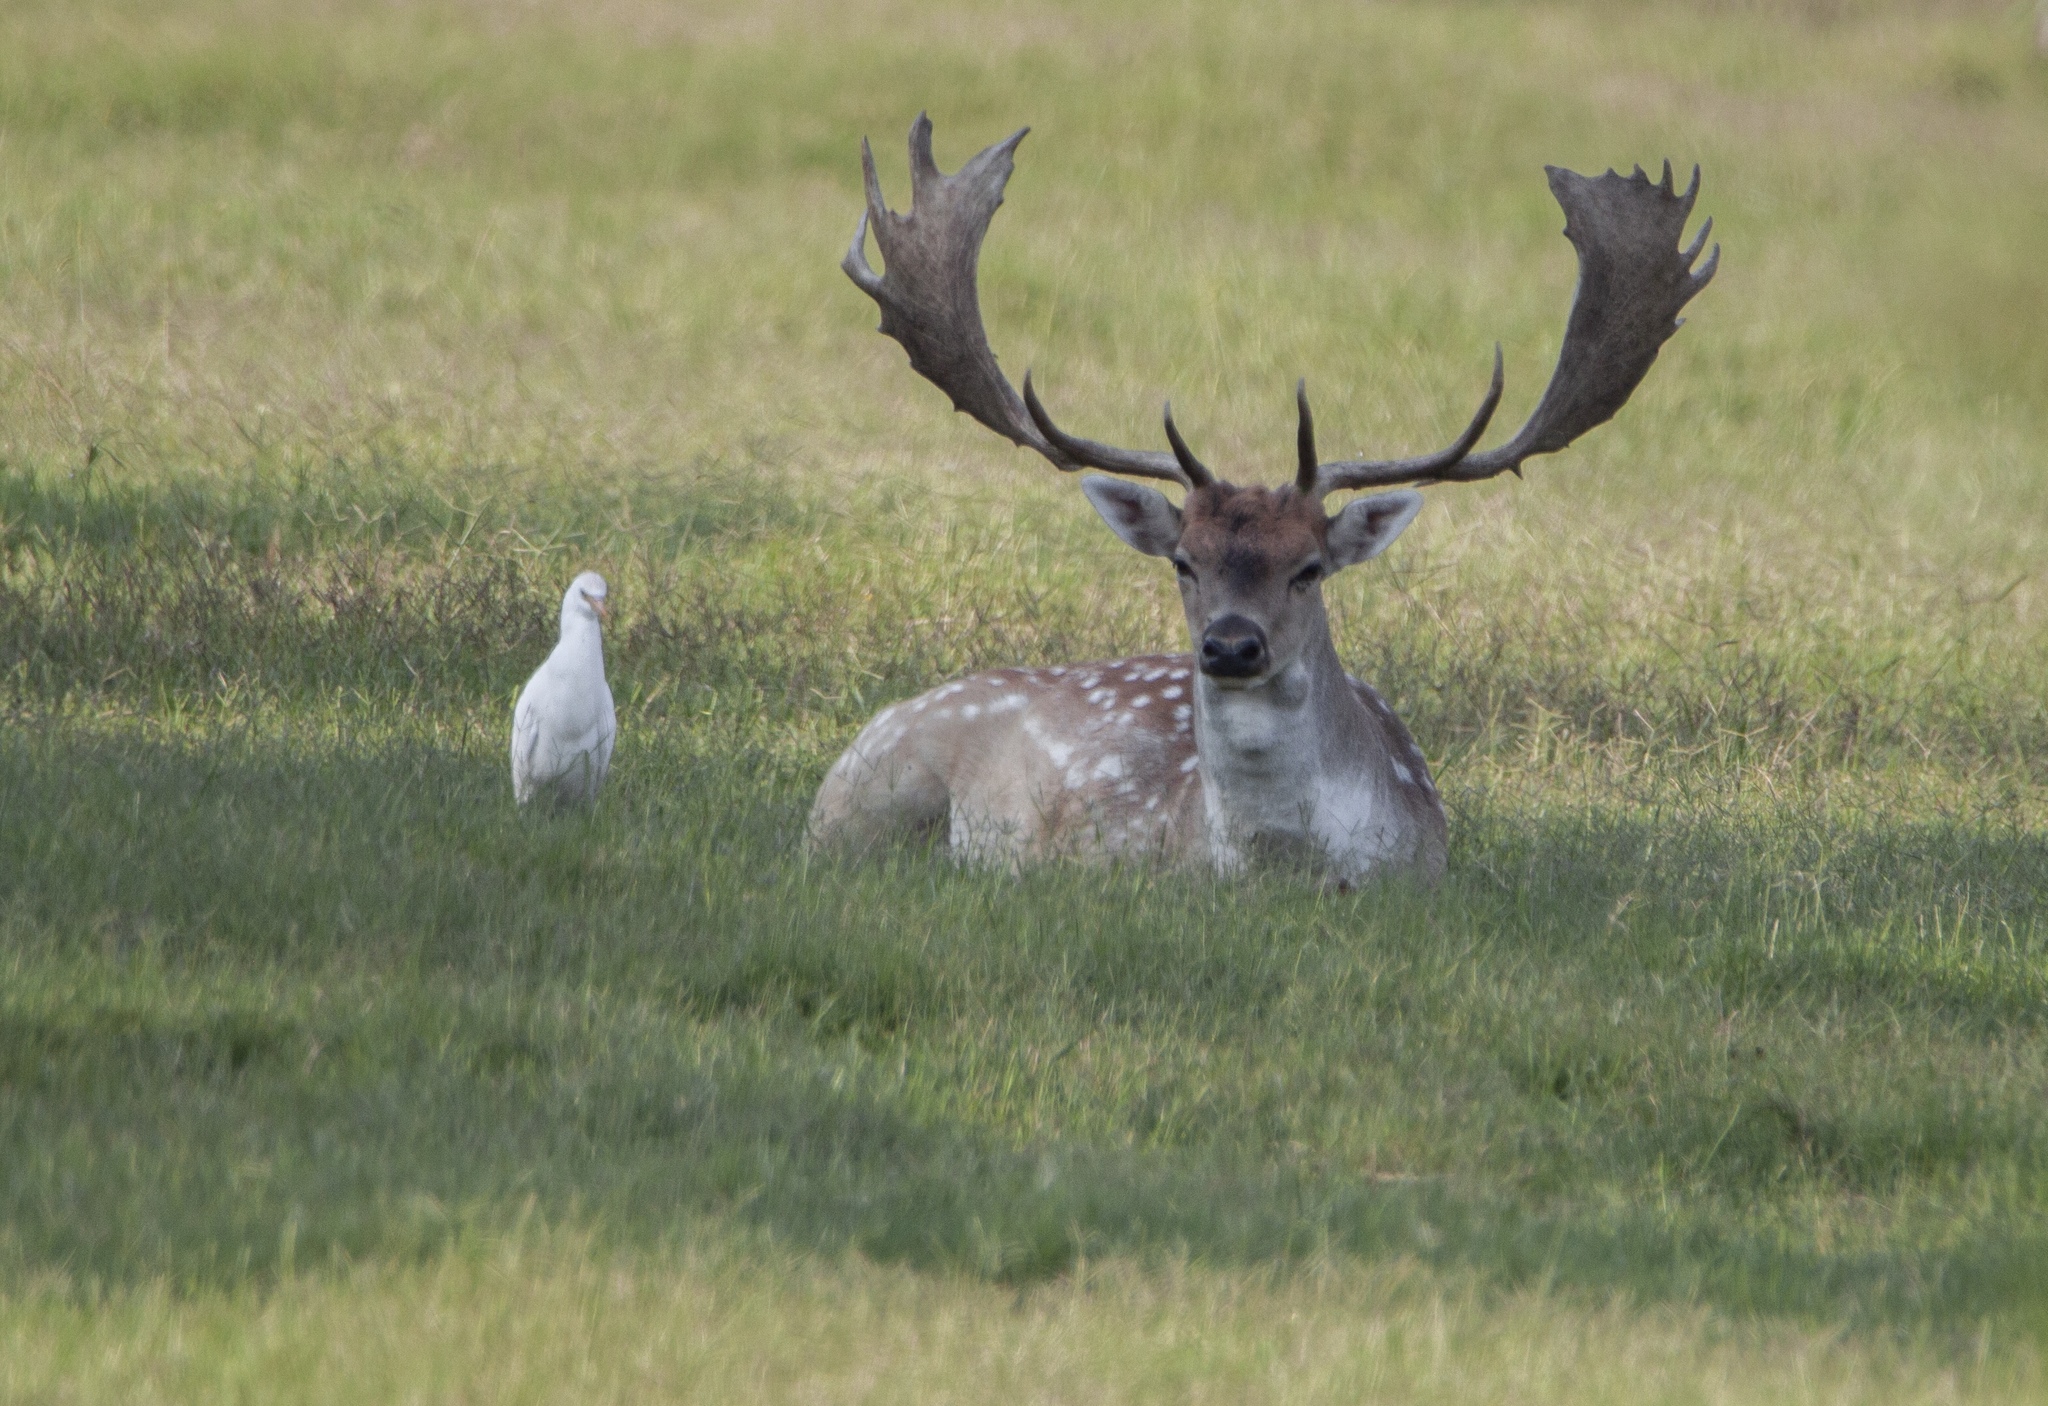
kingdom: Animalia
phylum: Chordata
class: Mammalia
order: Artiodactyla
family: Cervidae
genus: Dama
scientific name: Dama dama
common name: Fallow deer
